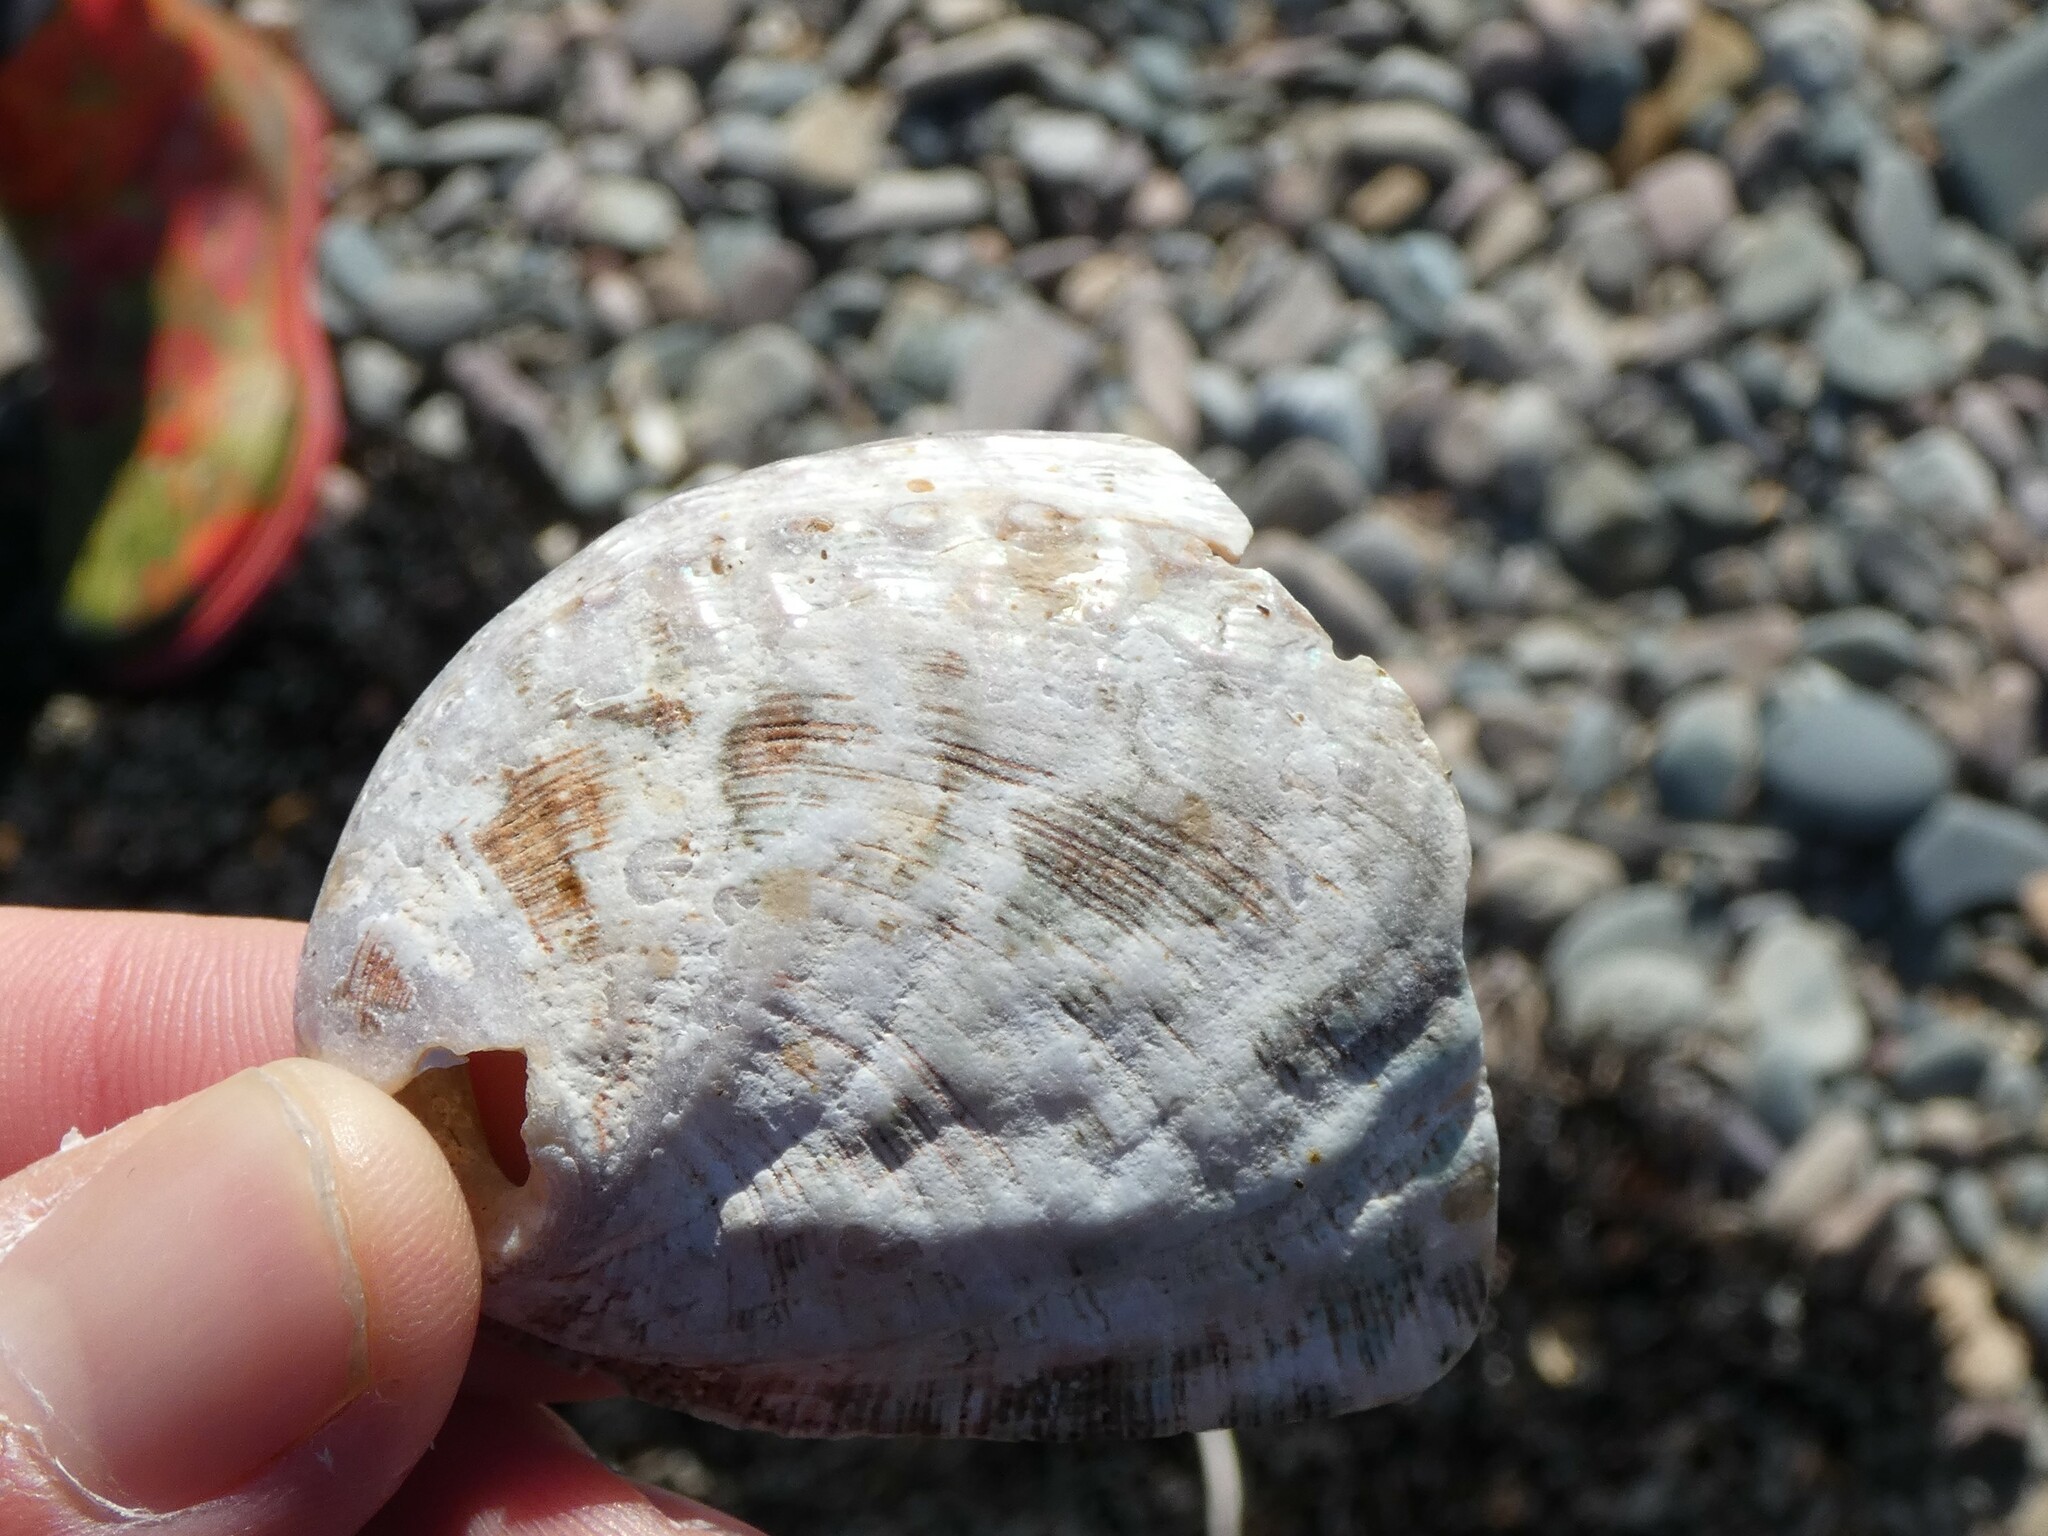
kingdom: Animalia
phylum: Mollusca
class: Gastropoda
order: Lepetellida
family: Haliotidae
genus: Haliotis
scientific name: Haliotis tuberculata
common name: Green ormer
